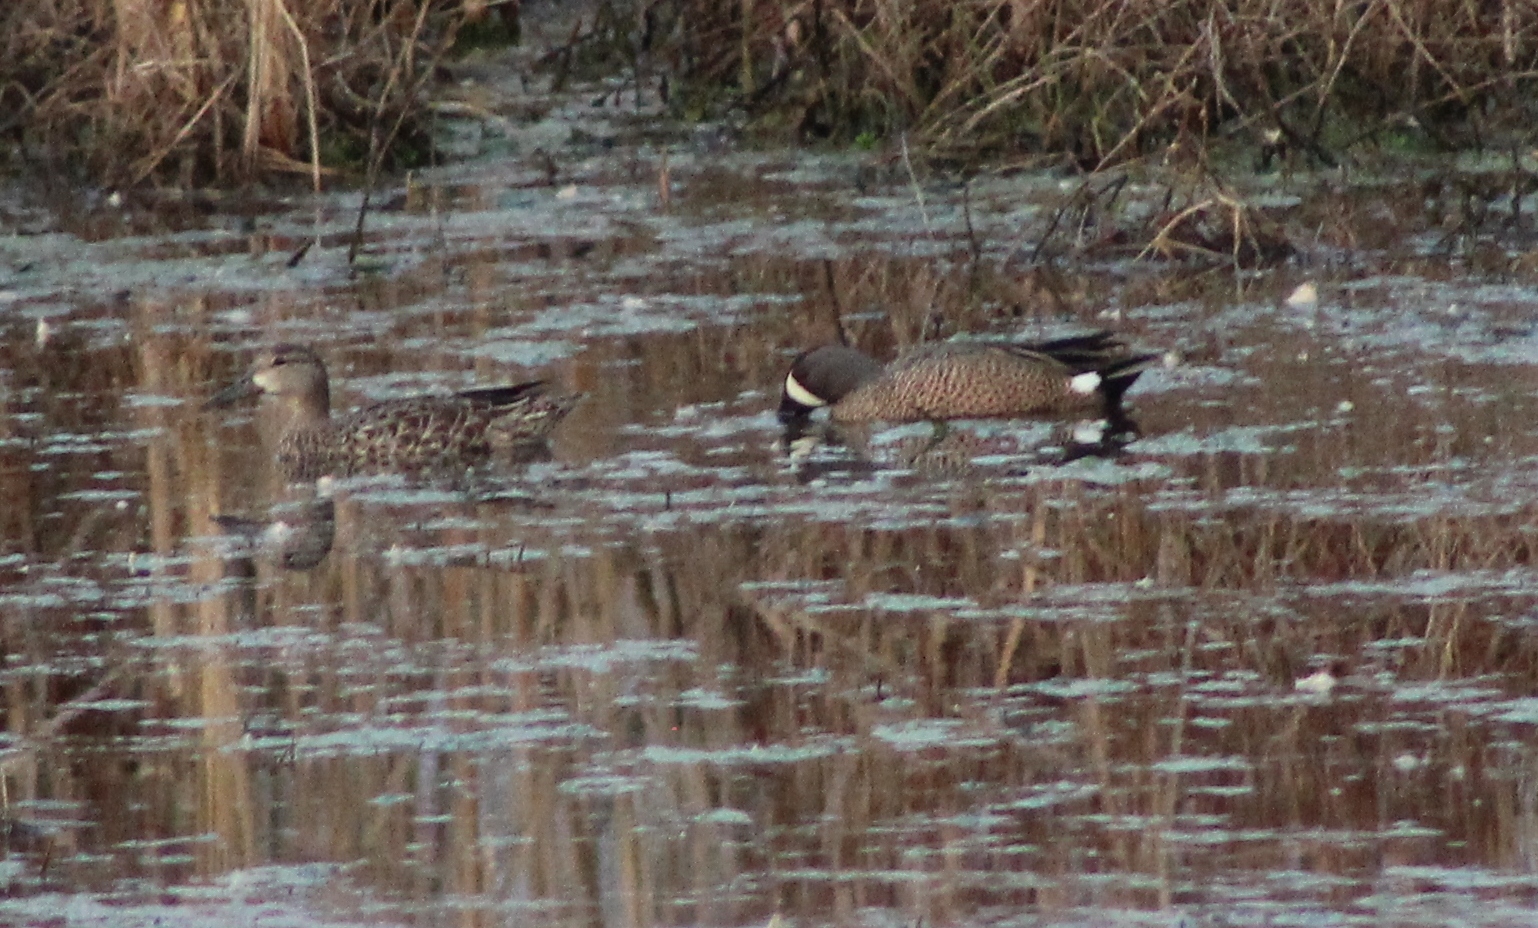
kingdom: Animalia
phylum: Chordata
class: Aves
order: Anseriformes
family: Anatidae
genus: Spatula
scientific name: Spatula discors
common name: Blue-winged teal
